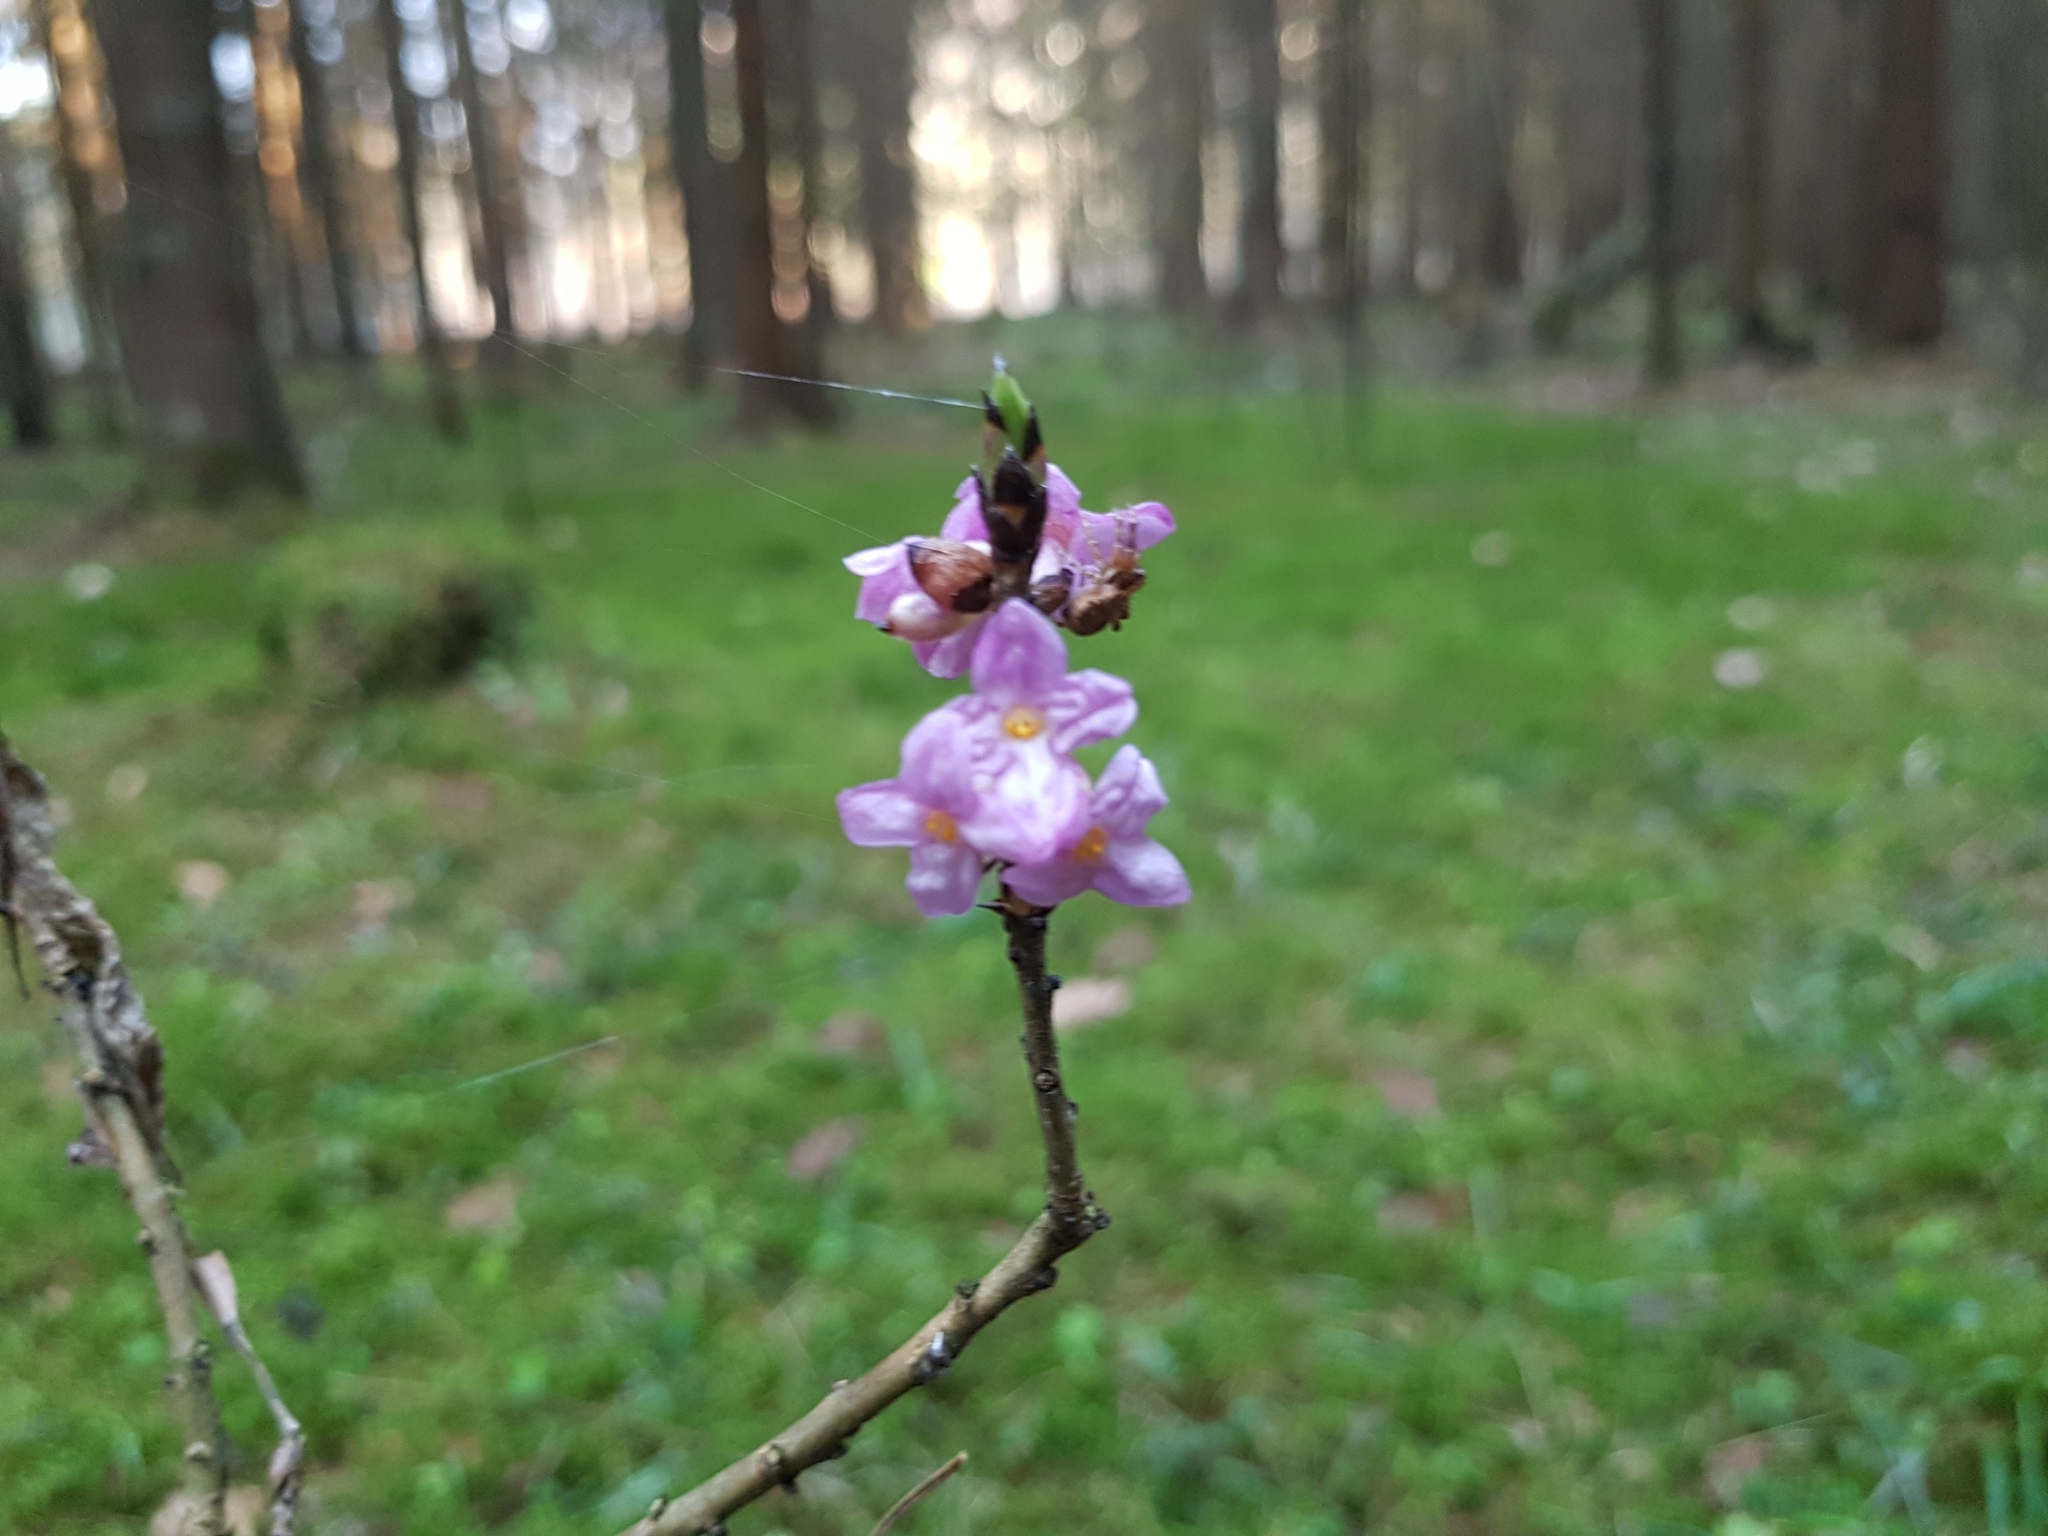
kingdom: Plantae
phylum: Tracheophyta
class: Magnoliopsida
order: Malvales
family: Thymelaeaceae
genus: Daphne
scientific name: Daphne mezereum
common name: Mezereon
